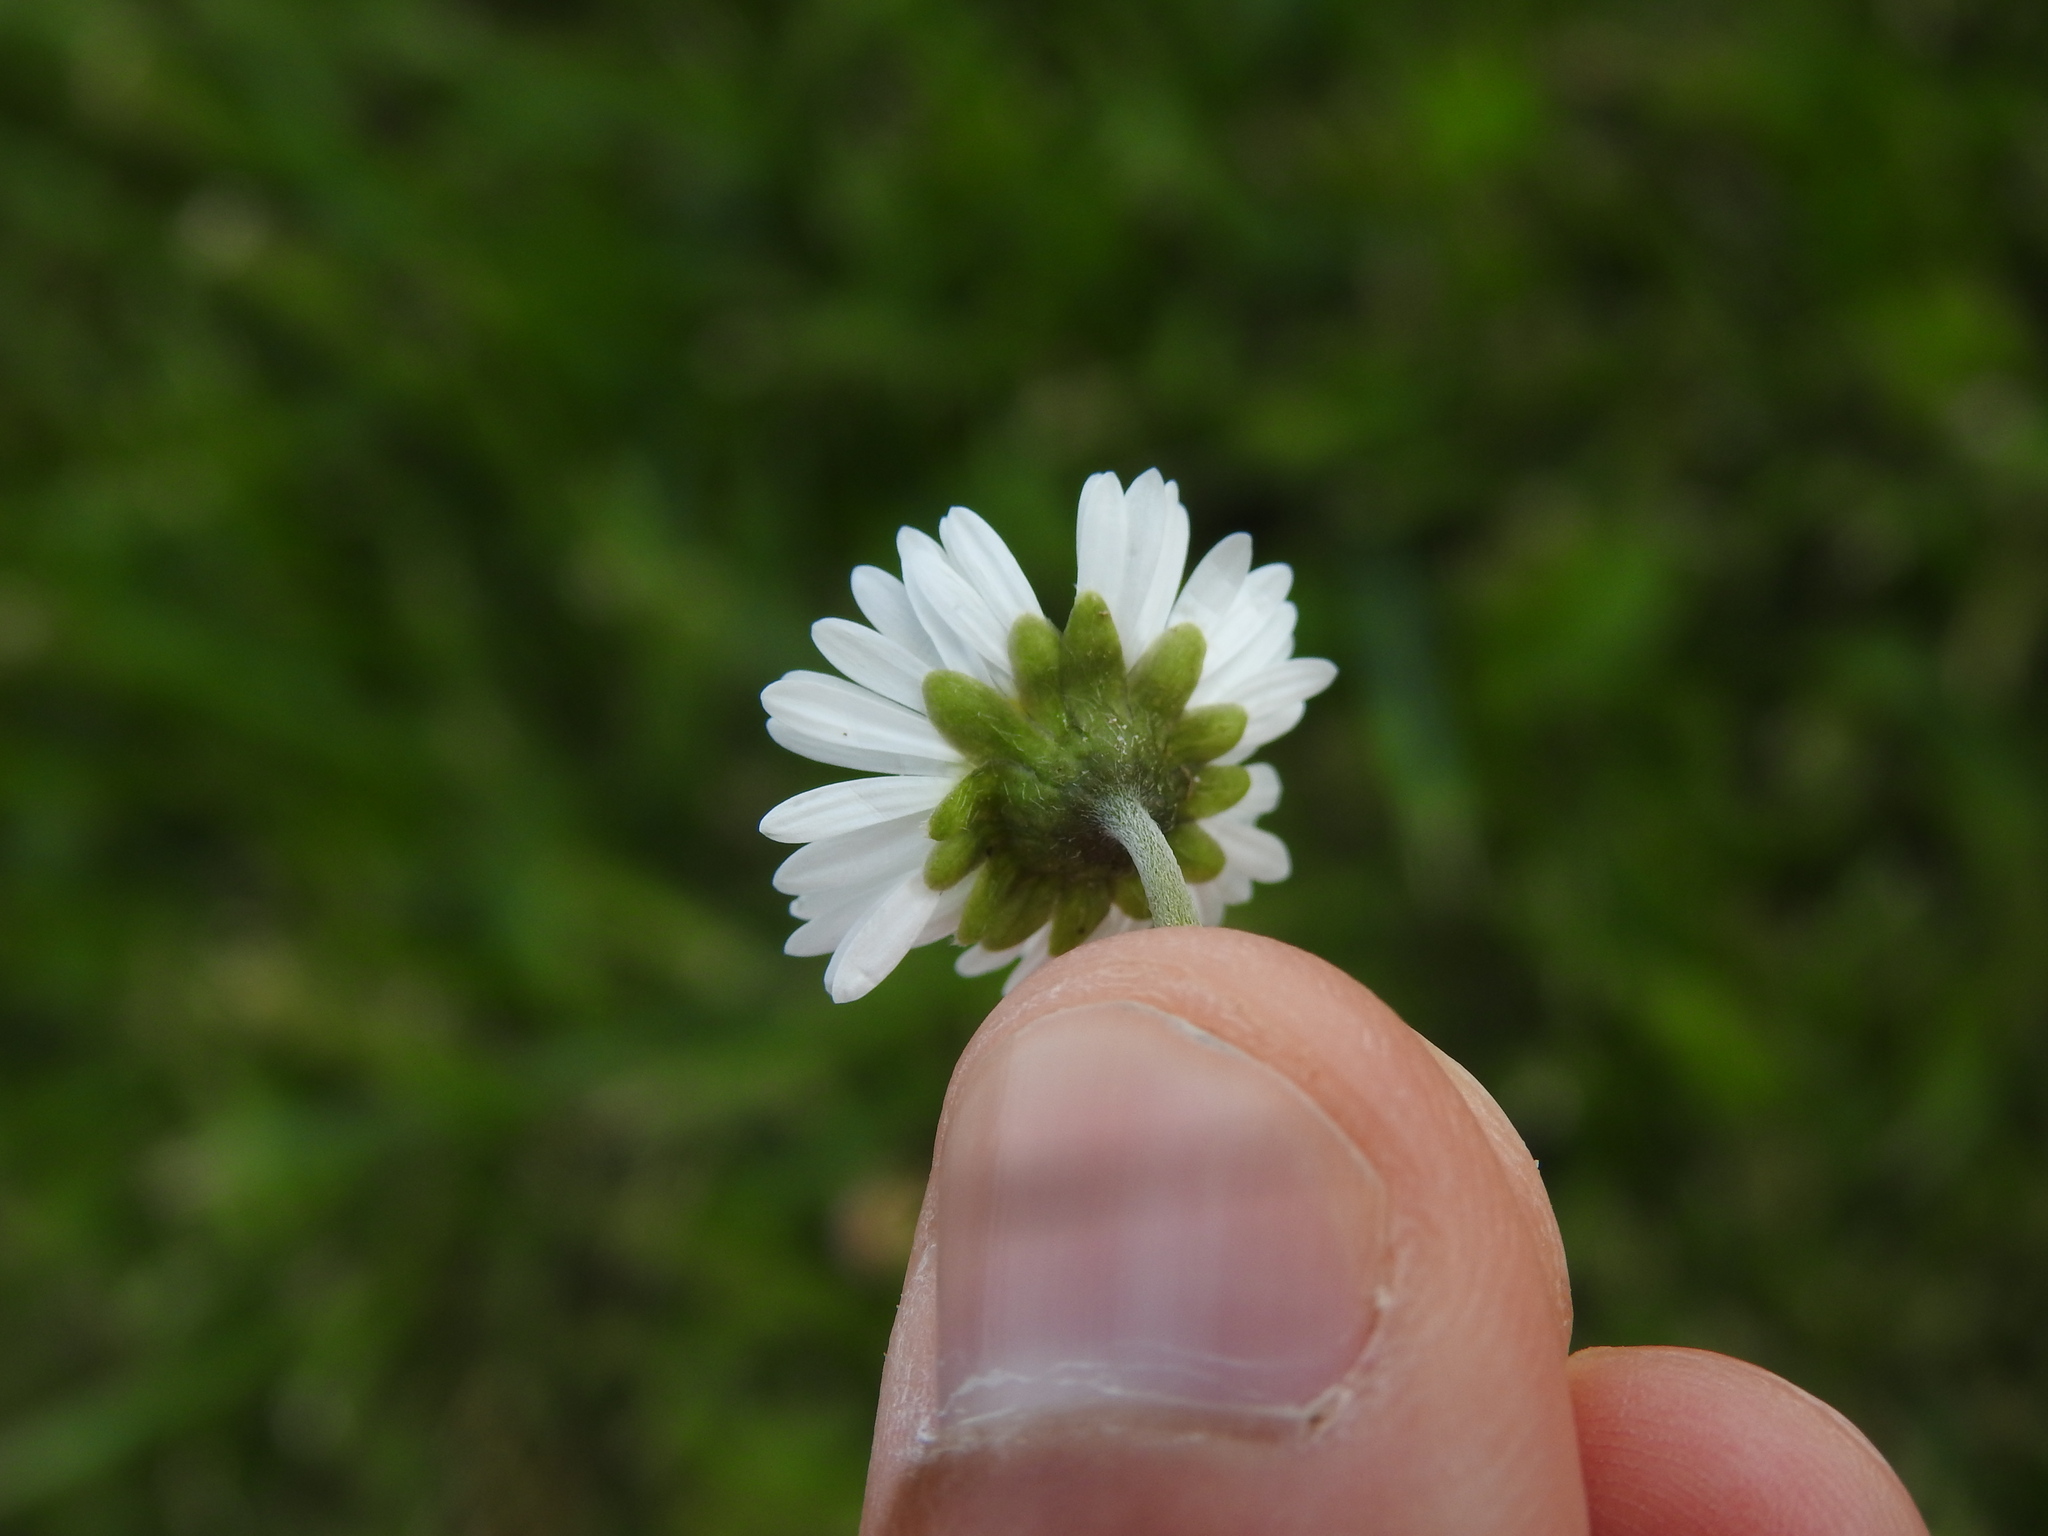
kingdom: Plantae
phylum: Tracheophyta
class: Magnoliopsida
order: Asterales
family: Asteraceae
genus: Bellis
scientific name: Bellis perennis
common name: Lawndaisy
